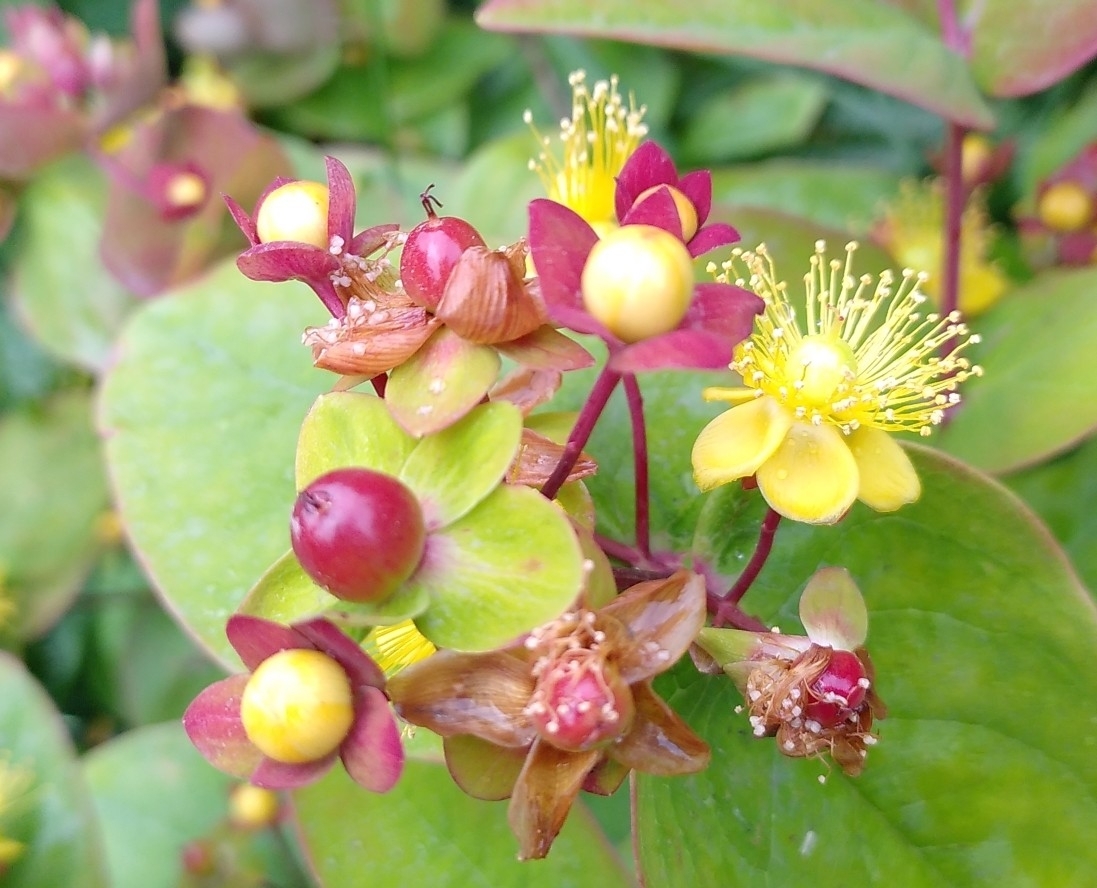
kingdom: Plantae
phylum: Tracheophyta
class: Magnoliopsida
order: Malpighiales
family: Hypericaceae
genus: Hypericum
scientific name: Hypericum androsaemum
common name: Sweet-amber
